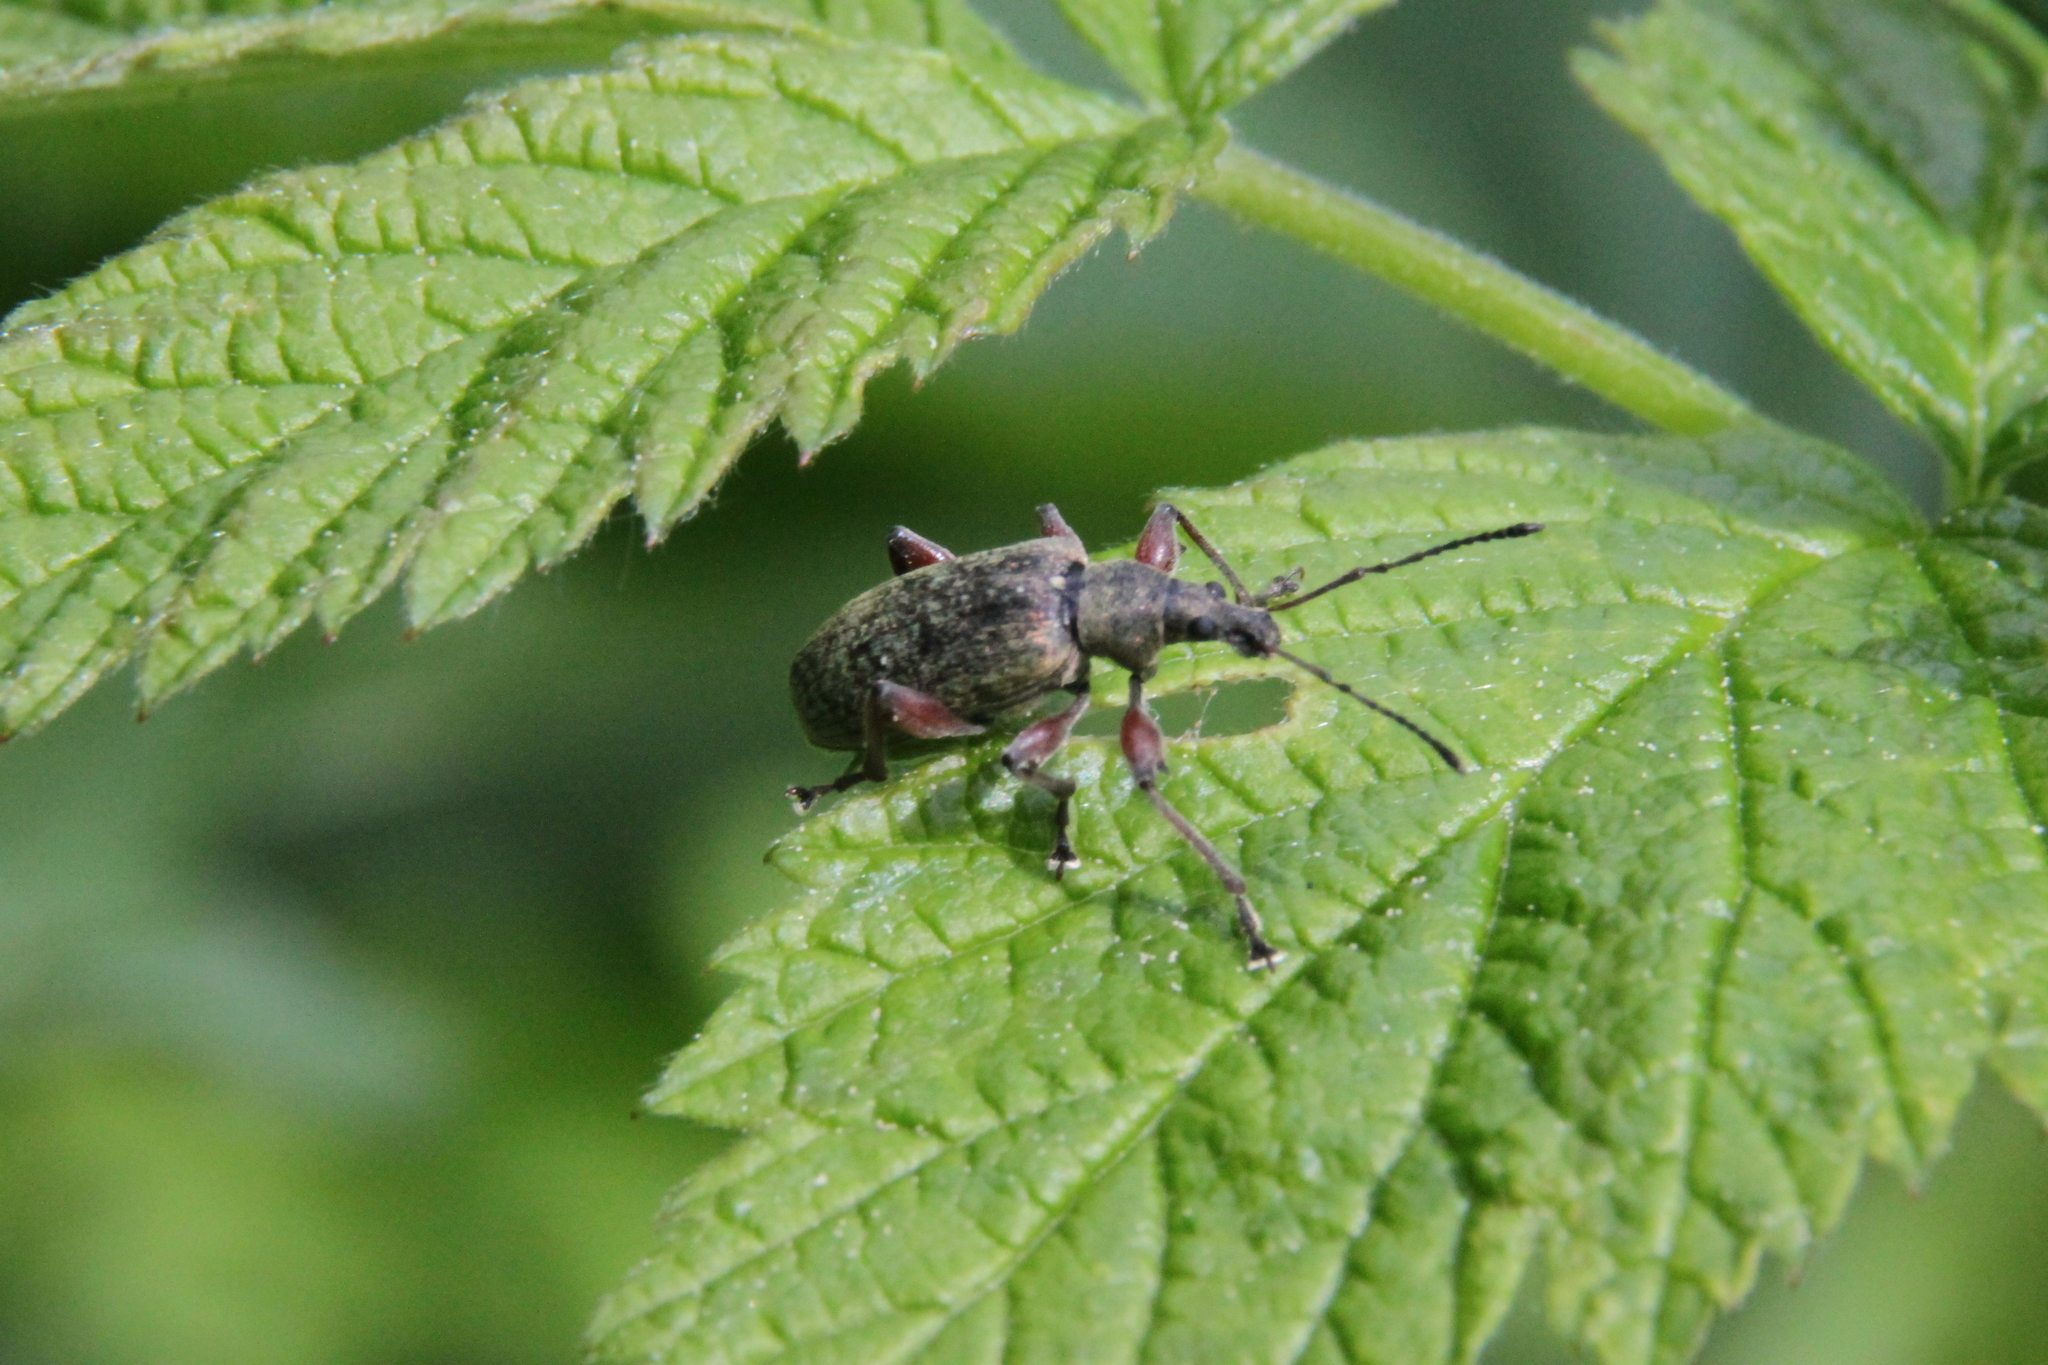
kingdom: Animalia
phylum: Arthropoda
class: Insecta
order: Coleoptera
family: Curculionidae
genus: Phyllobius
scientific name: Phyllobius glaucus
